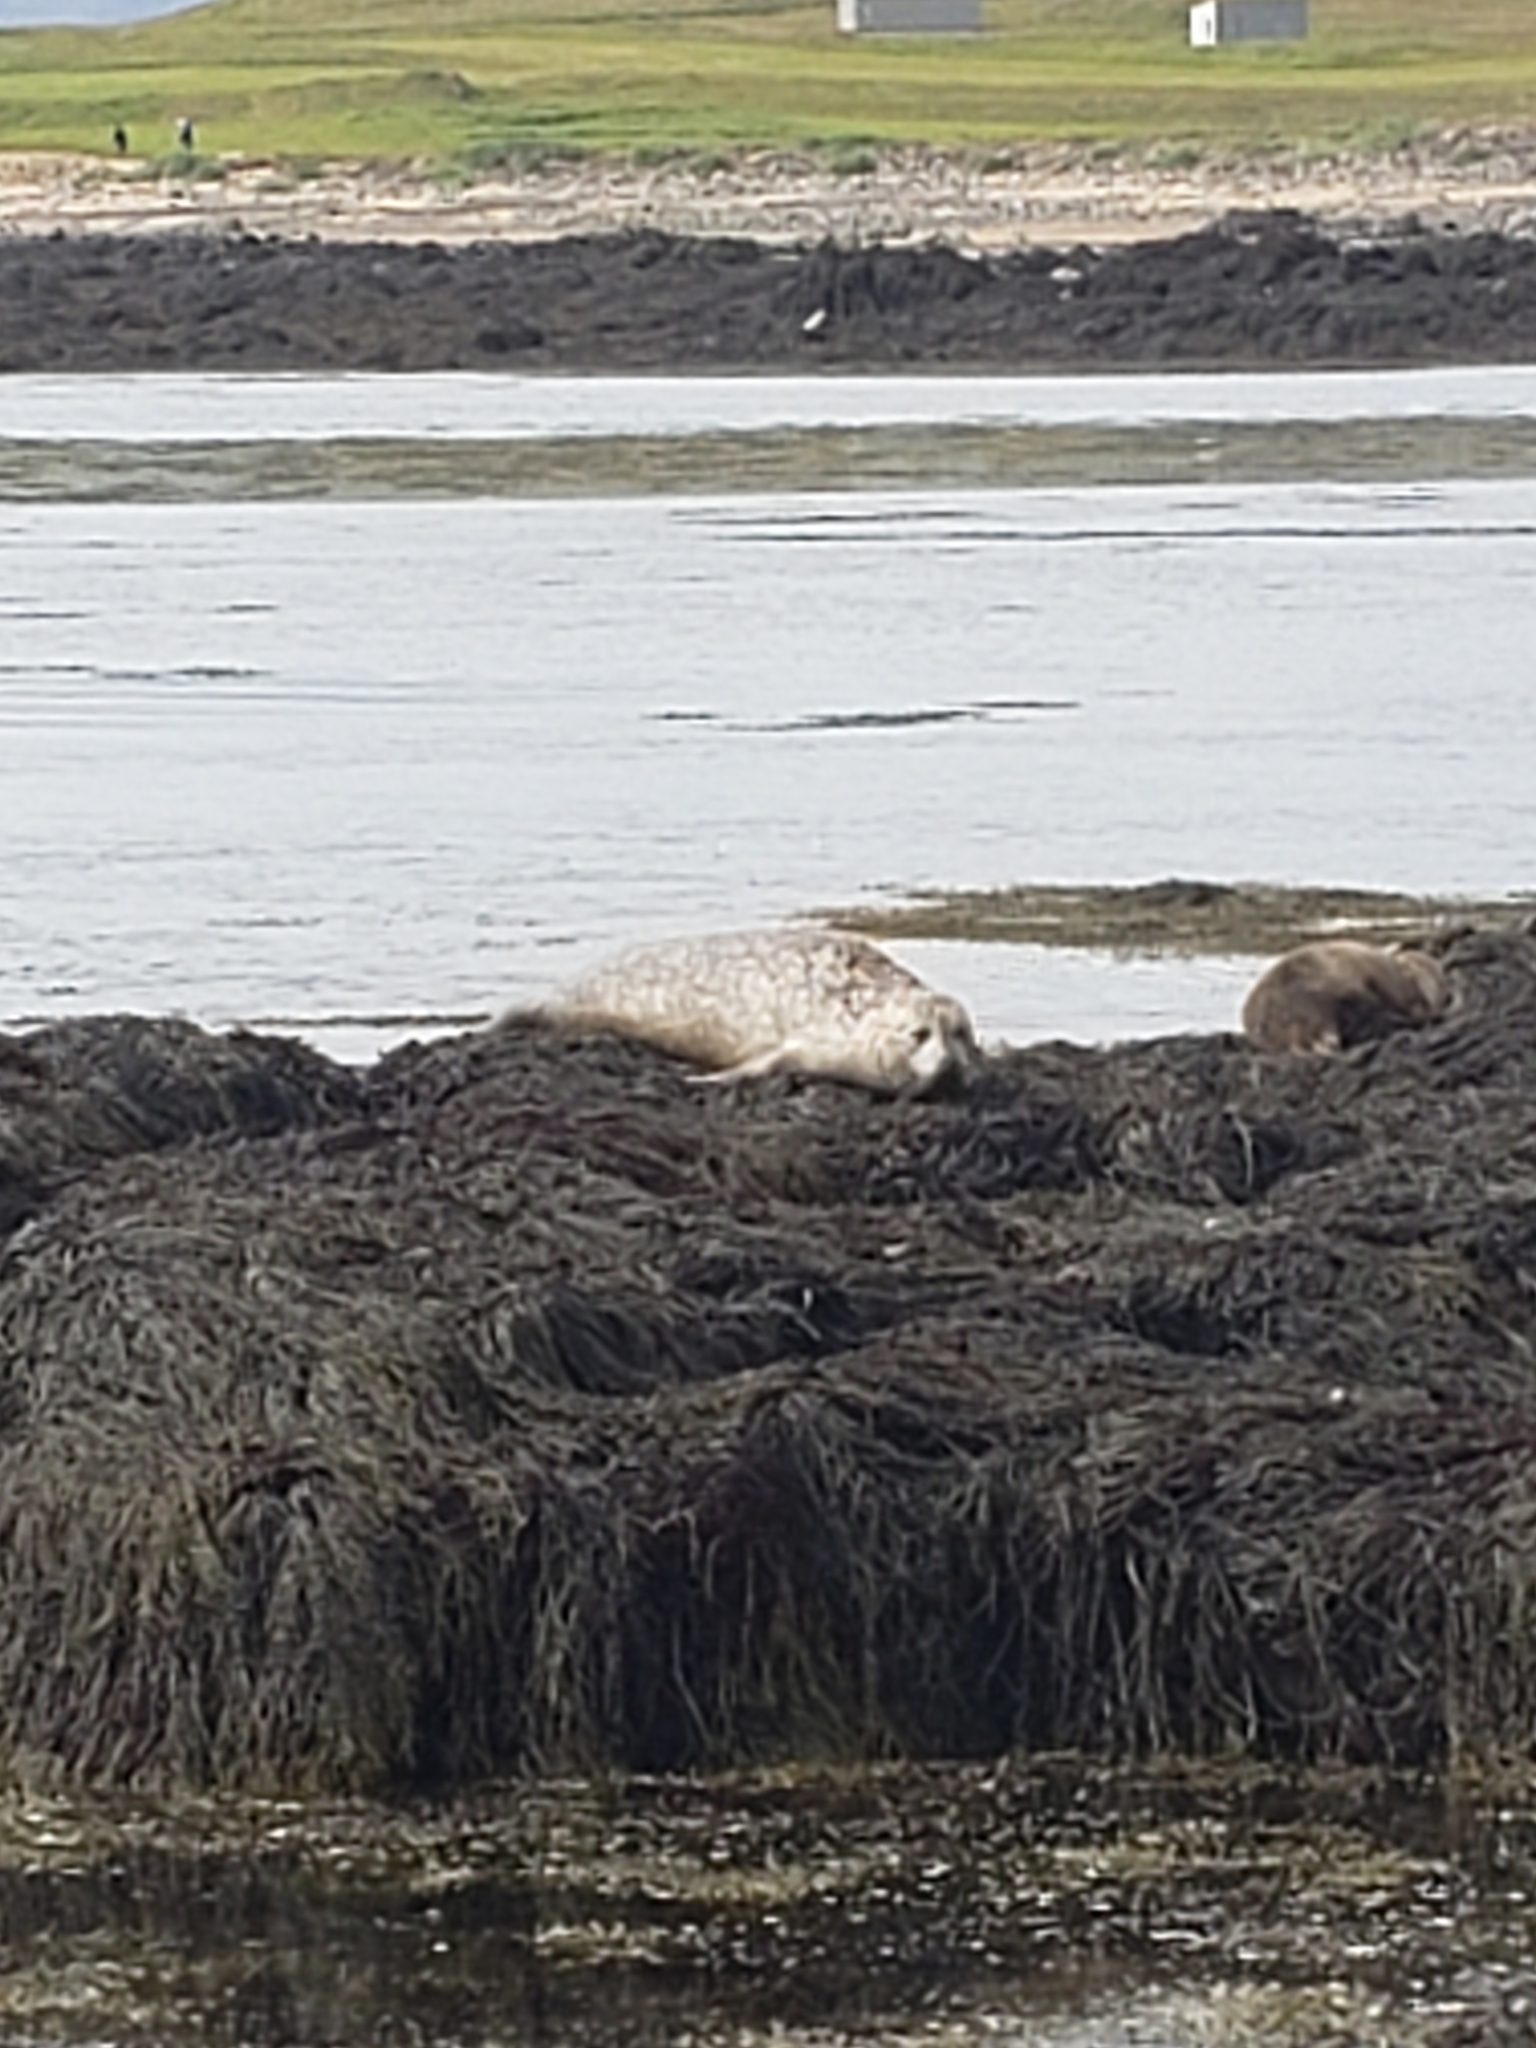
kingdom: Animalia
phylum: Chordata
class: Mammalia
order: Carnivora
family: Phocidae
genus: Phoca
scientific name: Phoca vitulina
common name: Harbor seal
